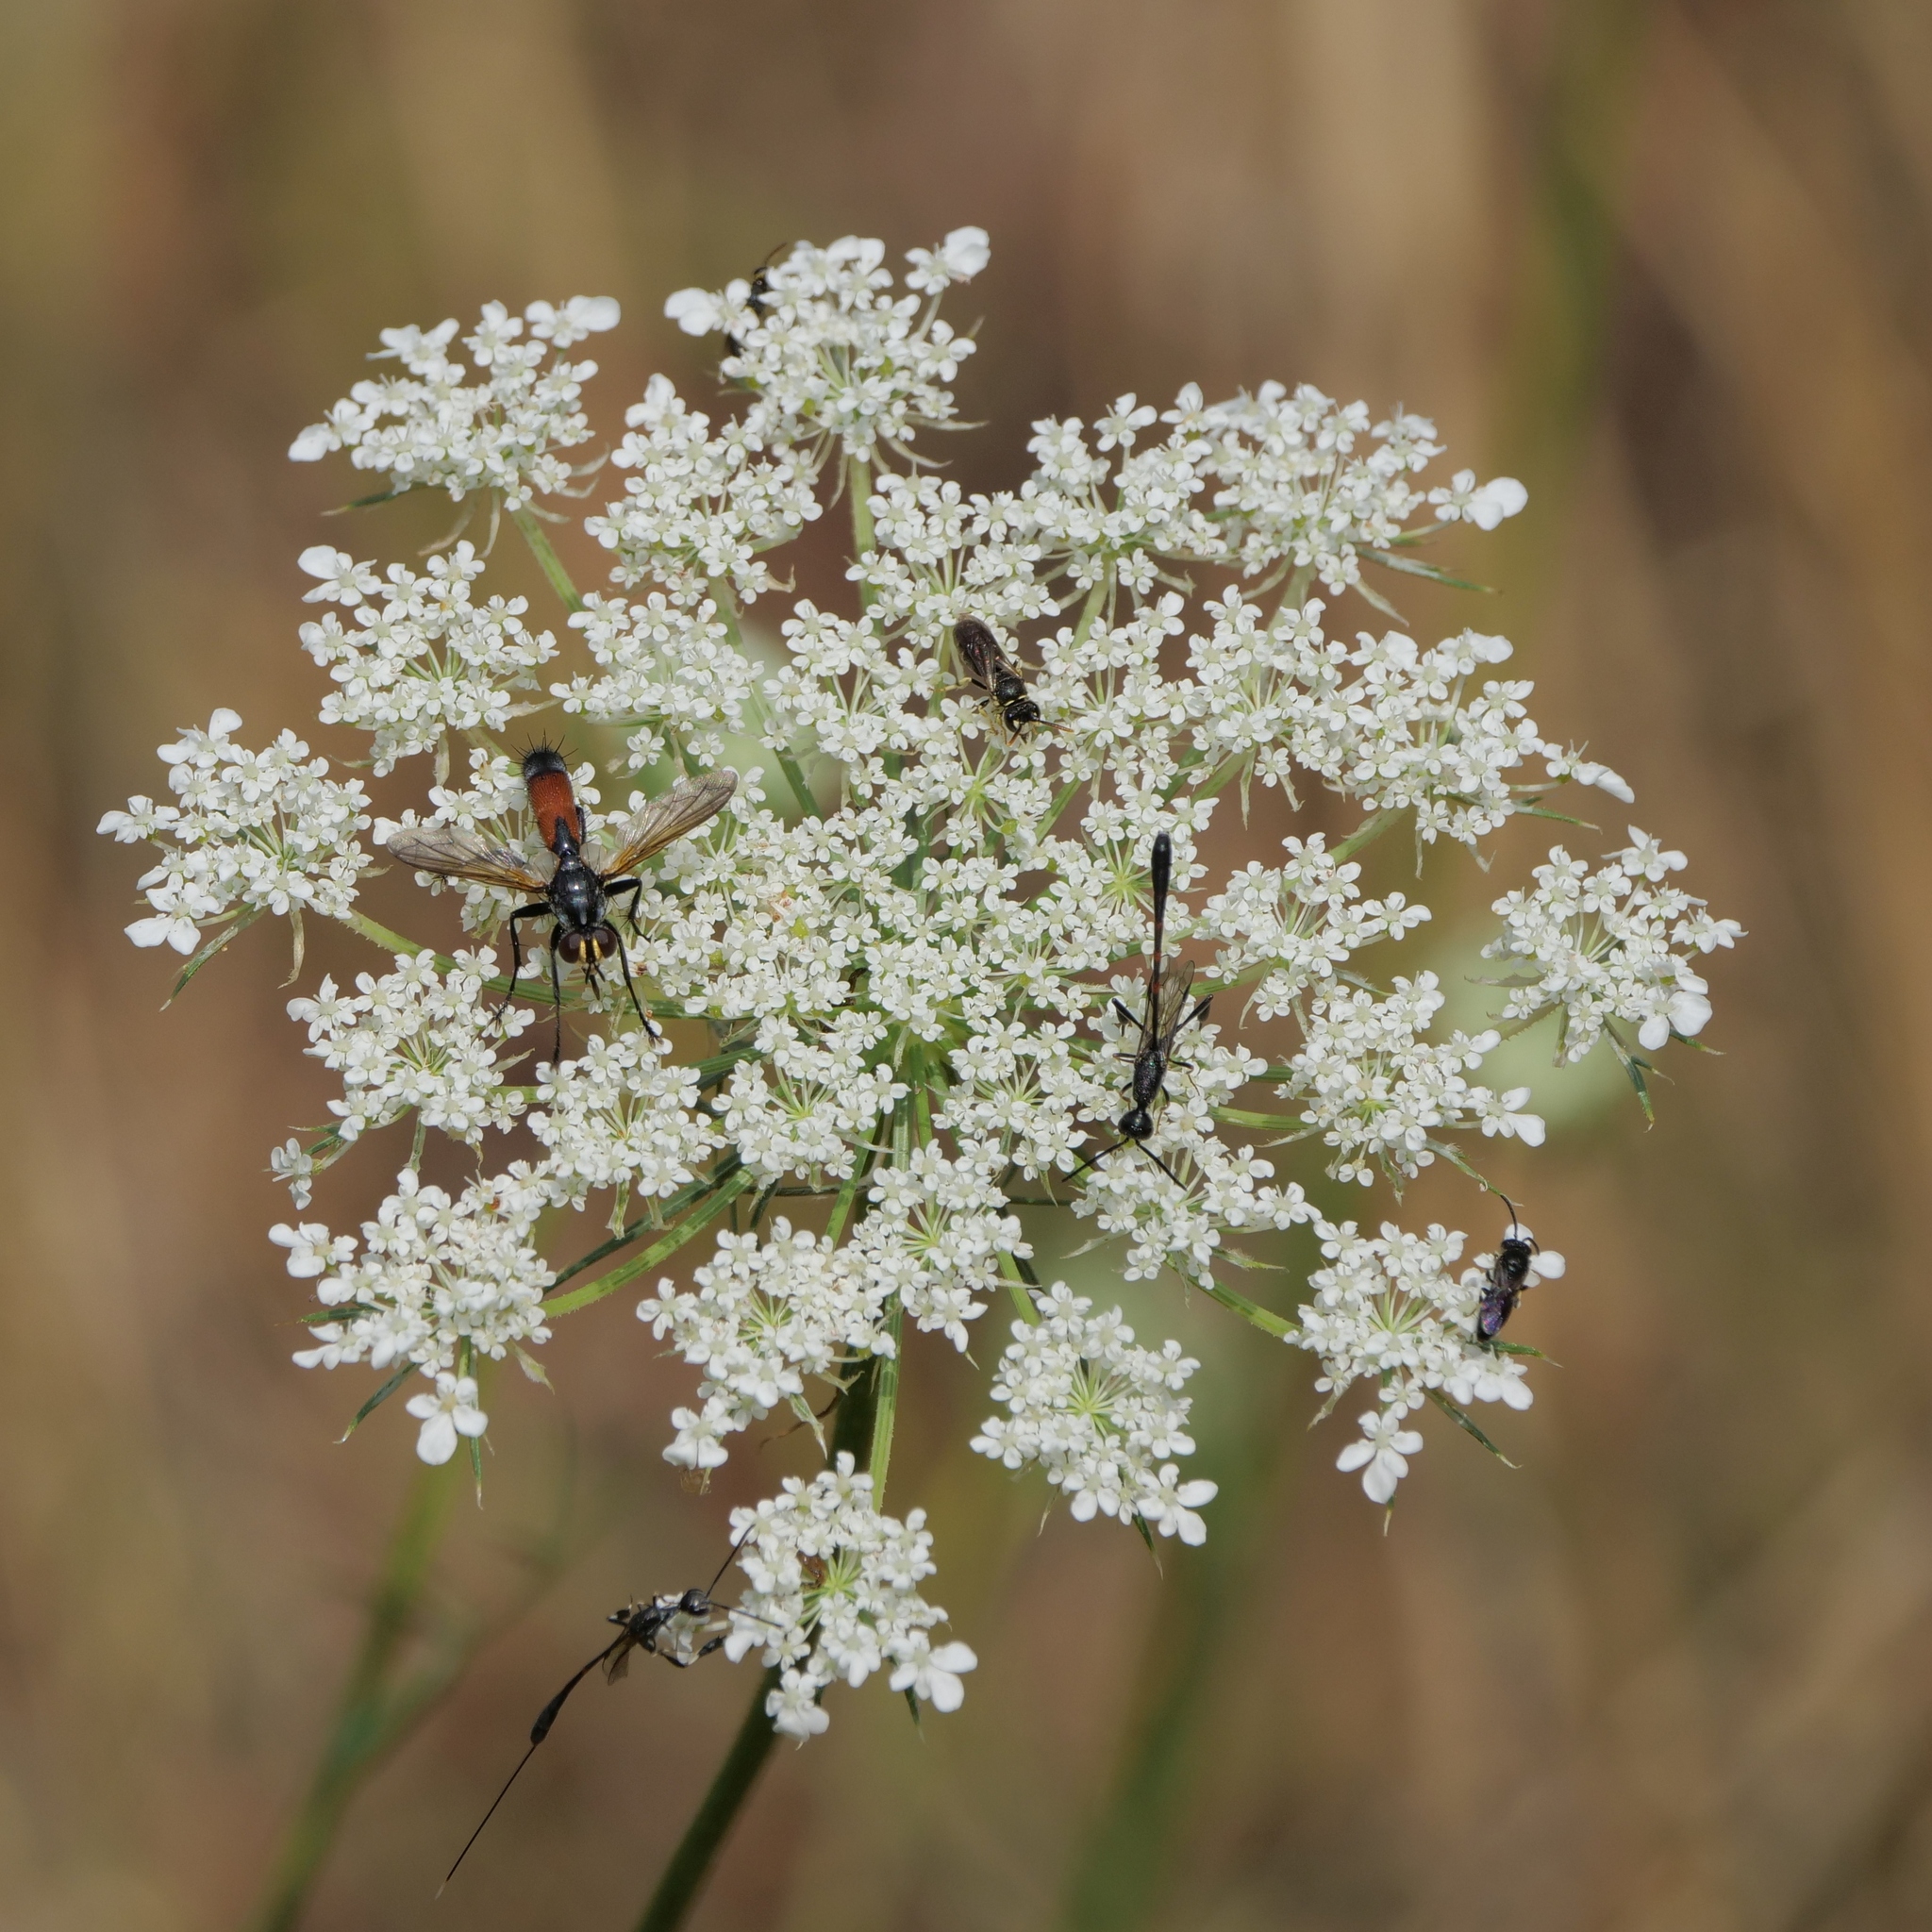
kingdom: Plantae
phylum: Tracheophyta
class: Magnoliopsida
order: Apiales
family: Apiaceae
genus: Daucus
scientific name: Daucus carota
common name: Wild carrot
